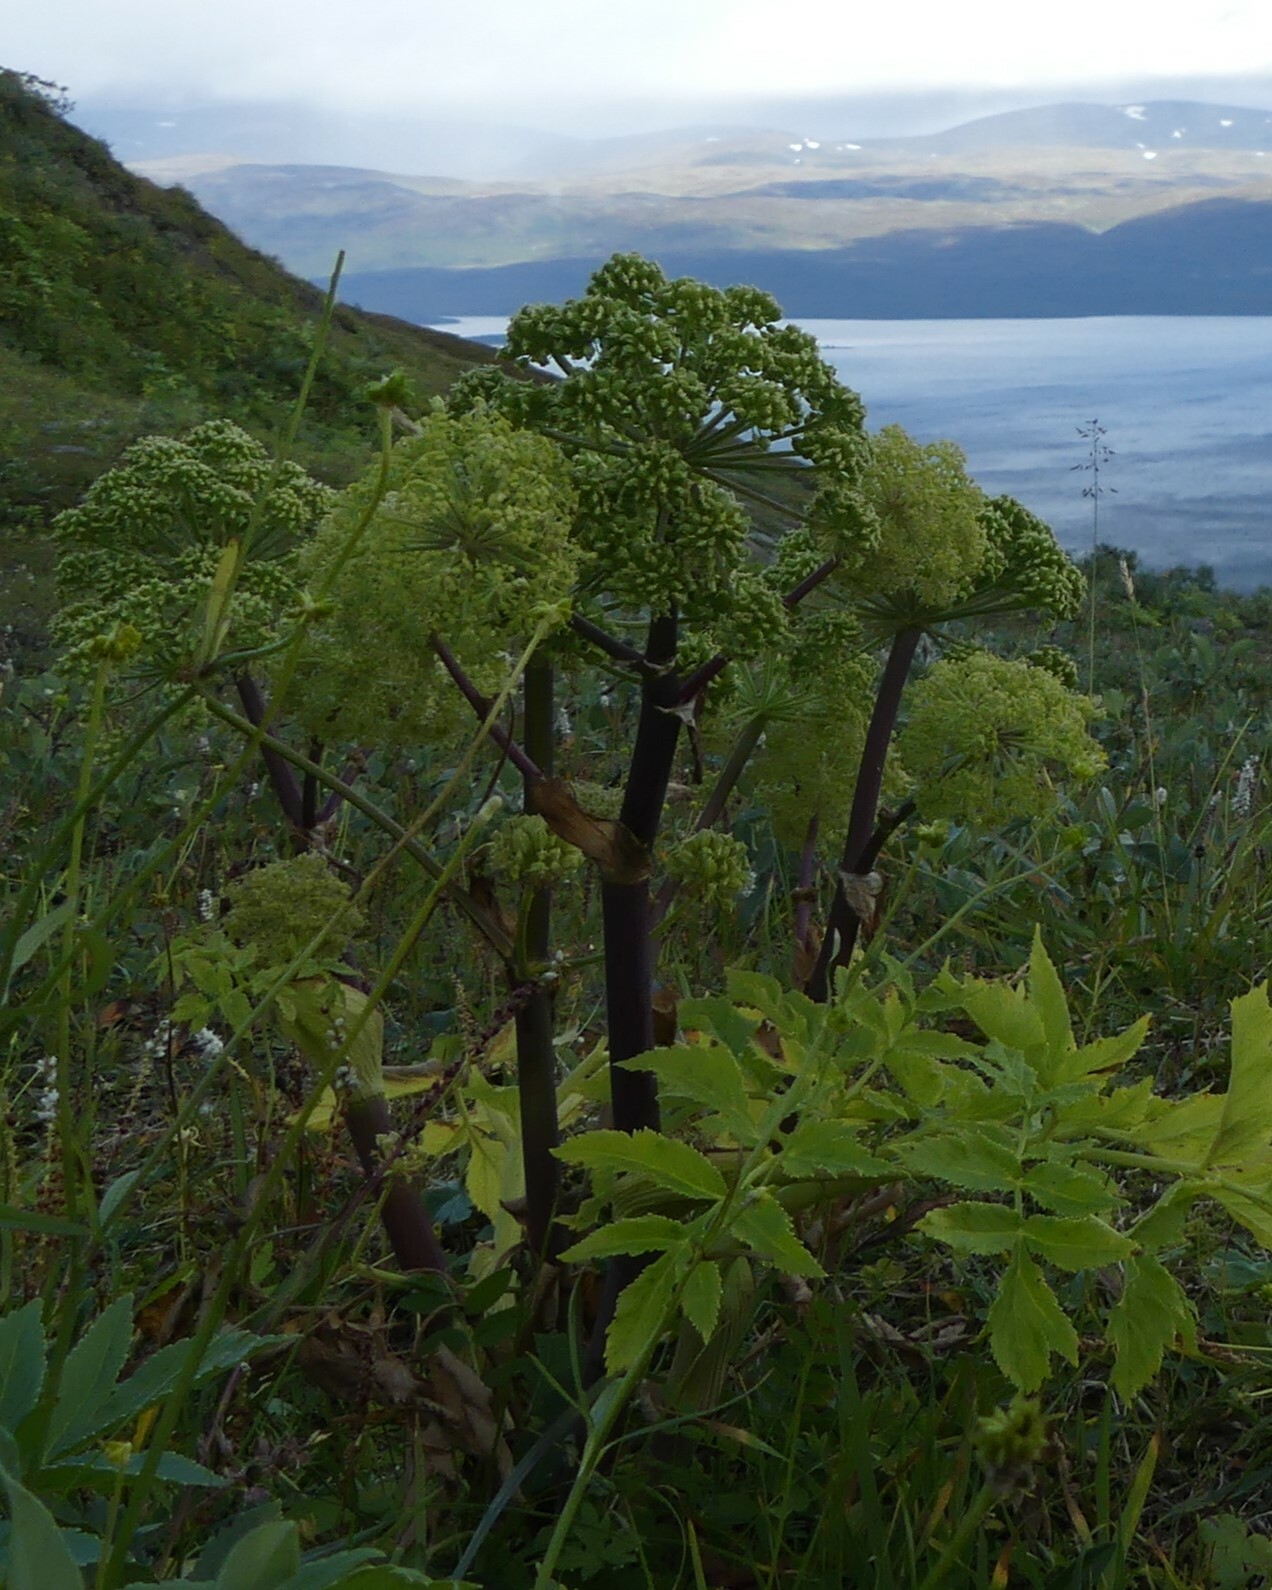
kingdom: Plantae
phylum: Tracheophyta
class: Magnoliopsida
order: Apiales
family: Apiaceae
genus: Angelica
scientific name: Angelica archangelica
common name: Garden angelica
